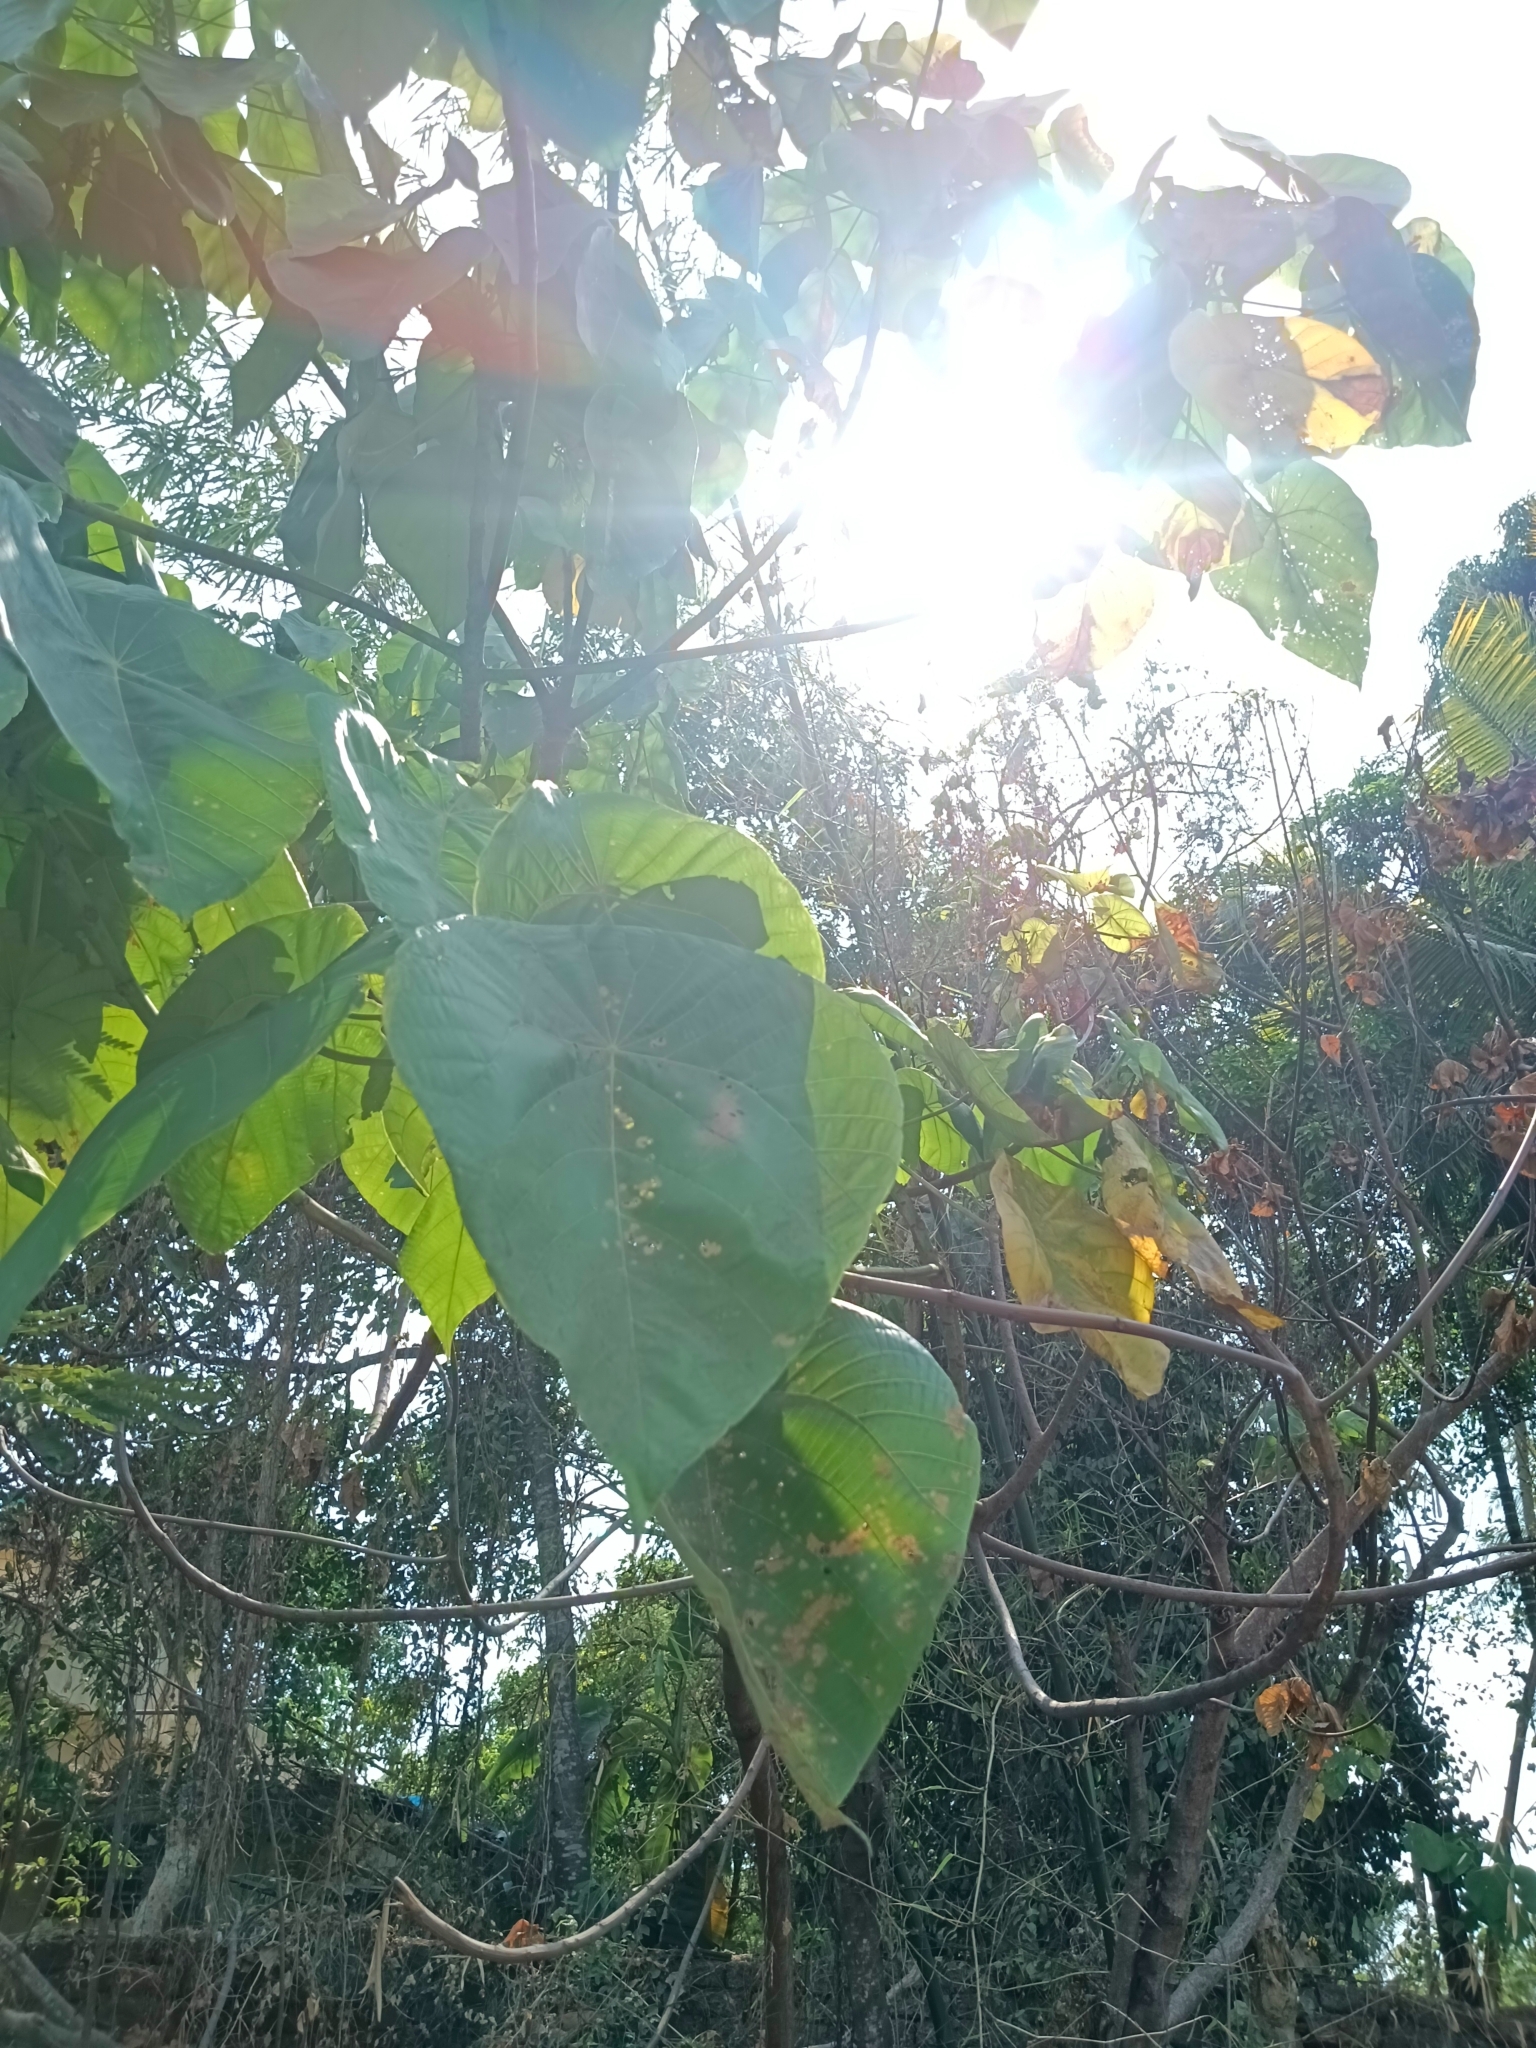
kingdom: Plantae
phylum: Tracheophyta
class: Magnoliopsida
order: Malpighiales
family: Euphorbiaceae
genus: Macaranga
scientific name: Macaranga peltata
